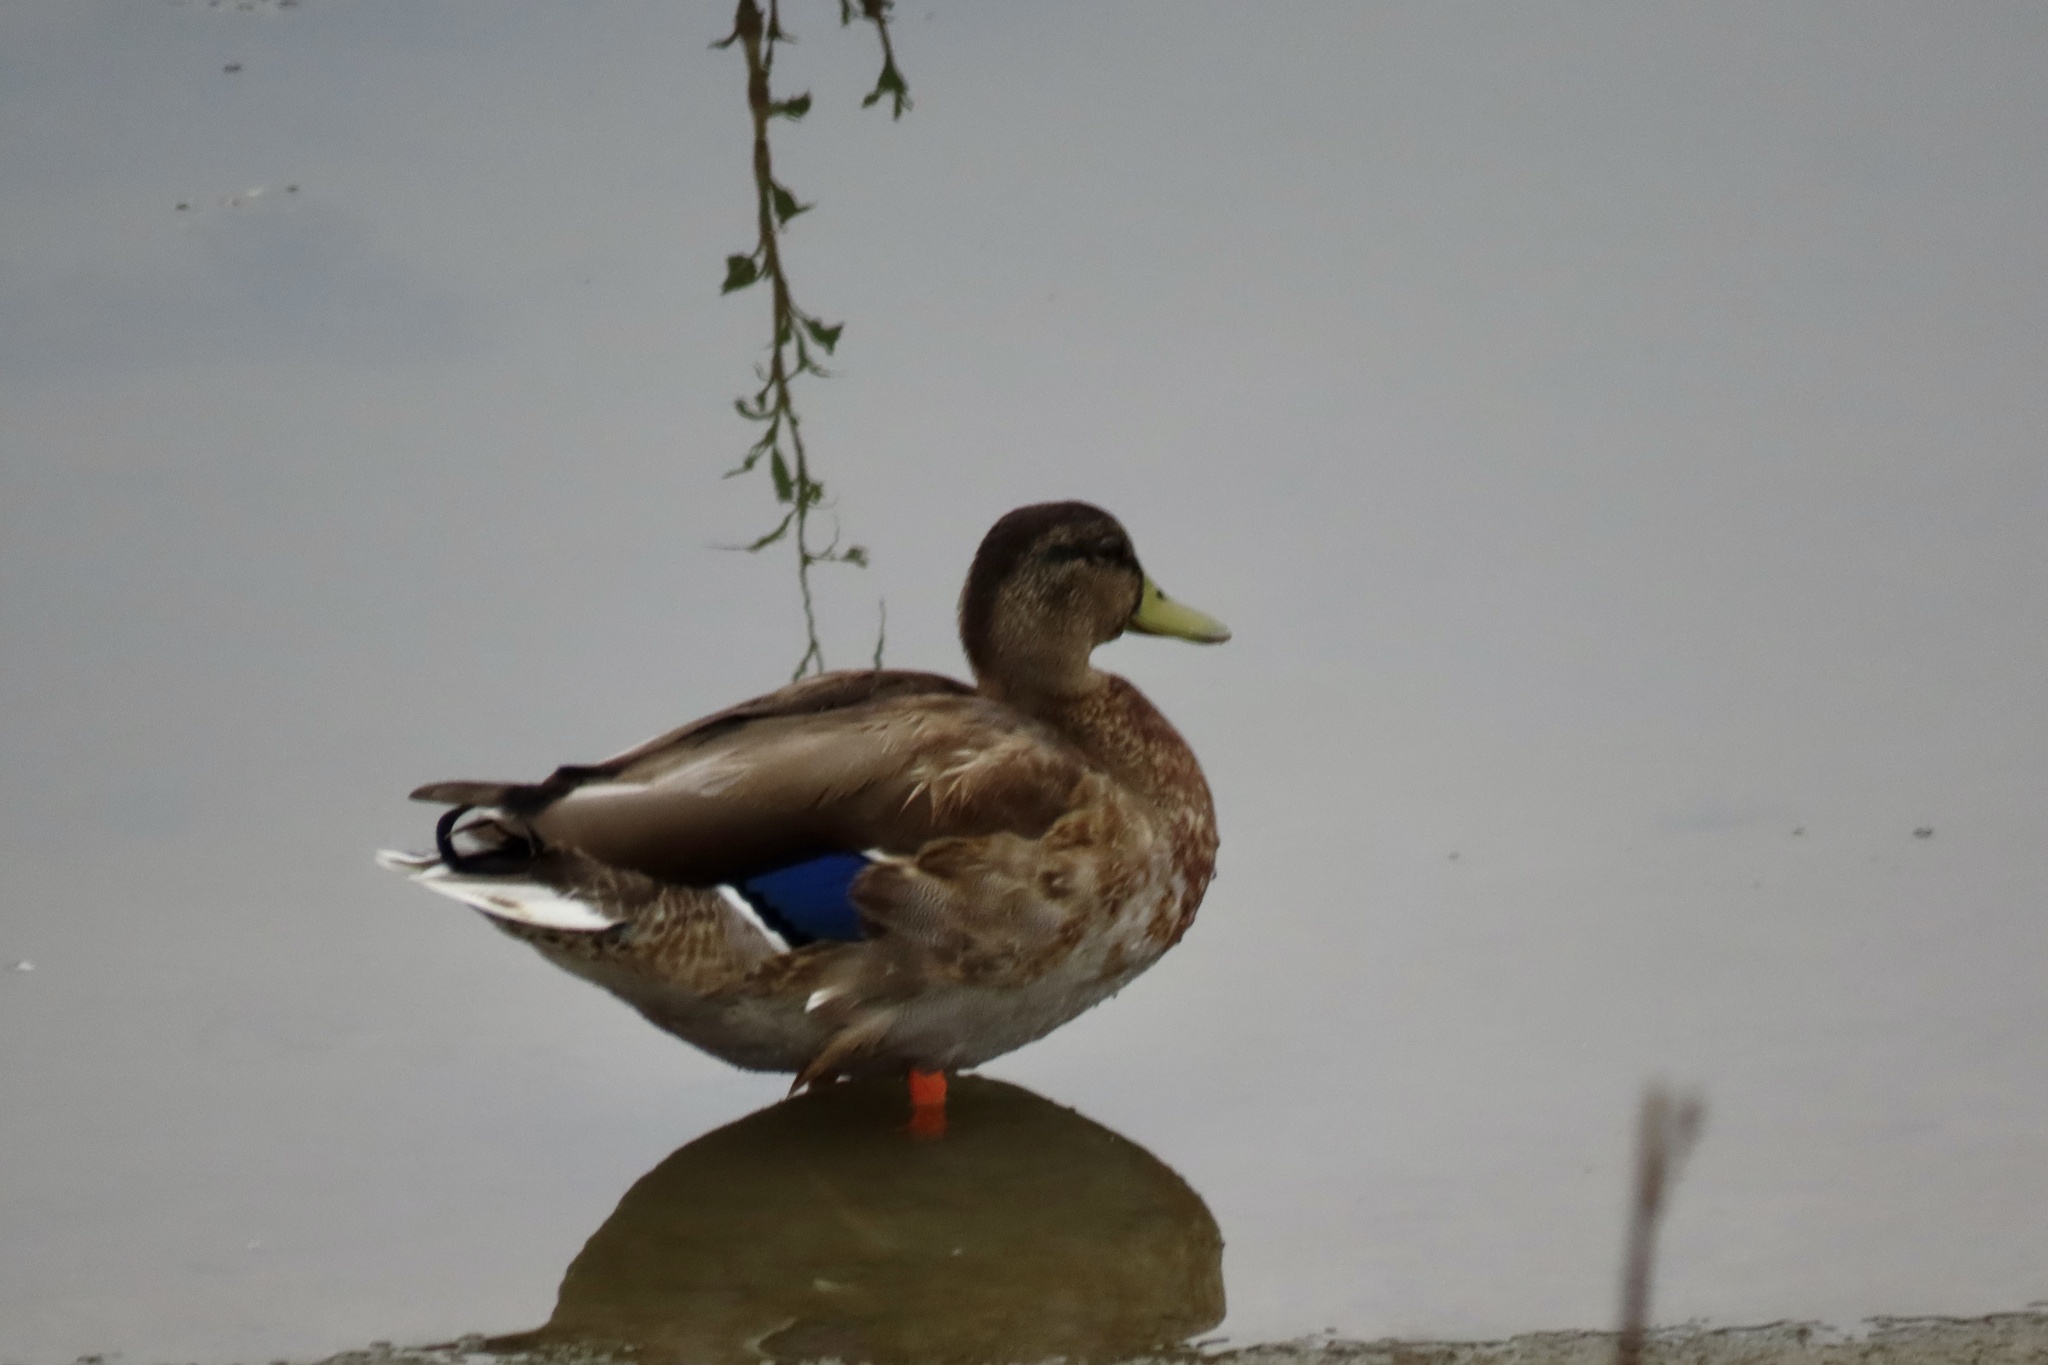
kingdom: Animalia
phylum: Chordata
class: Aves
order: Anseriformes
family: Anatidae
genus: Anas
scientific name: Anas platyrhynchos
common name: Mallard
